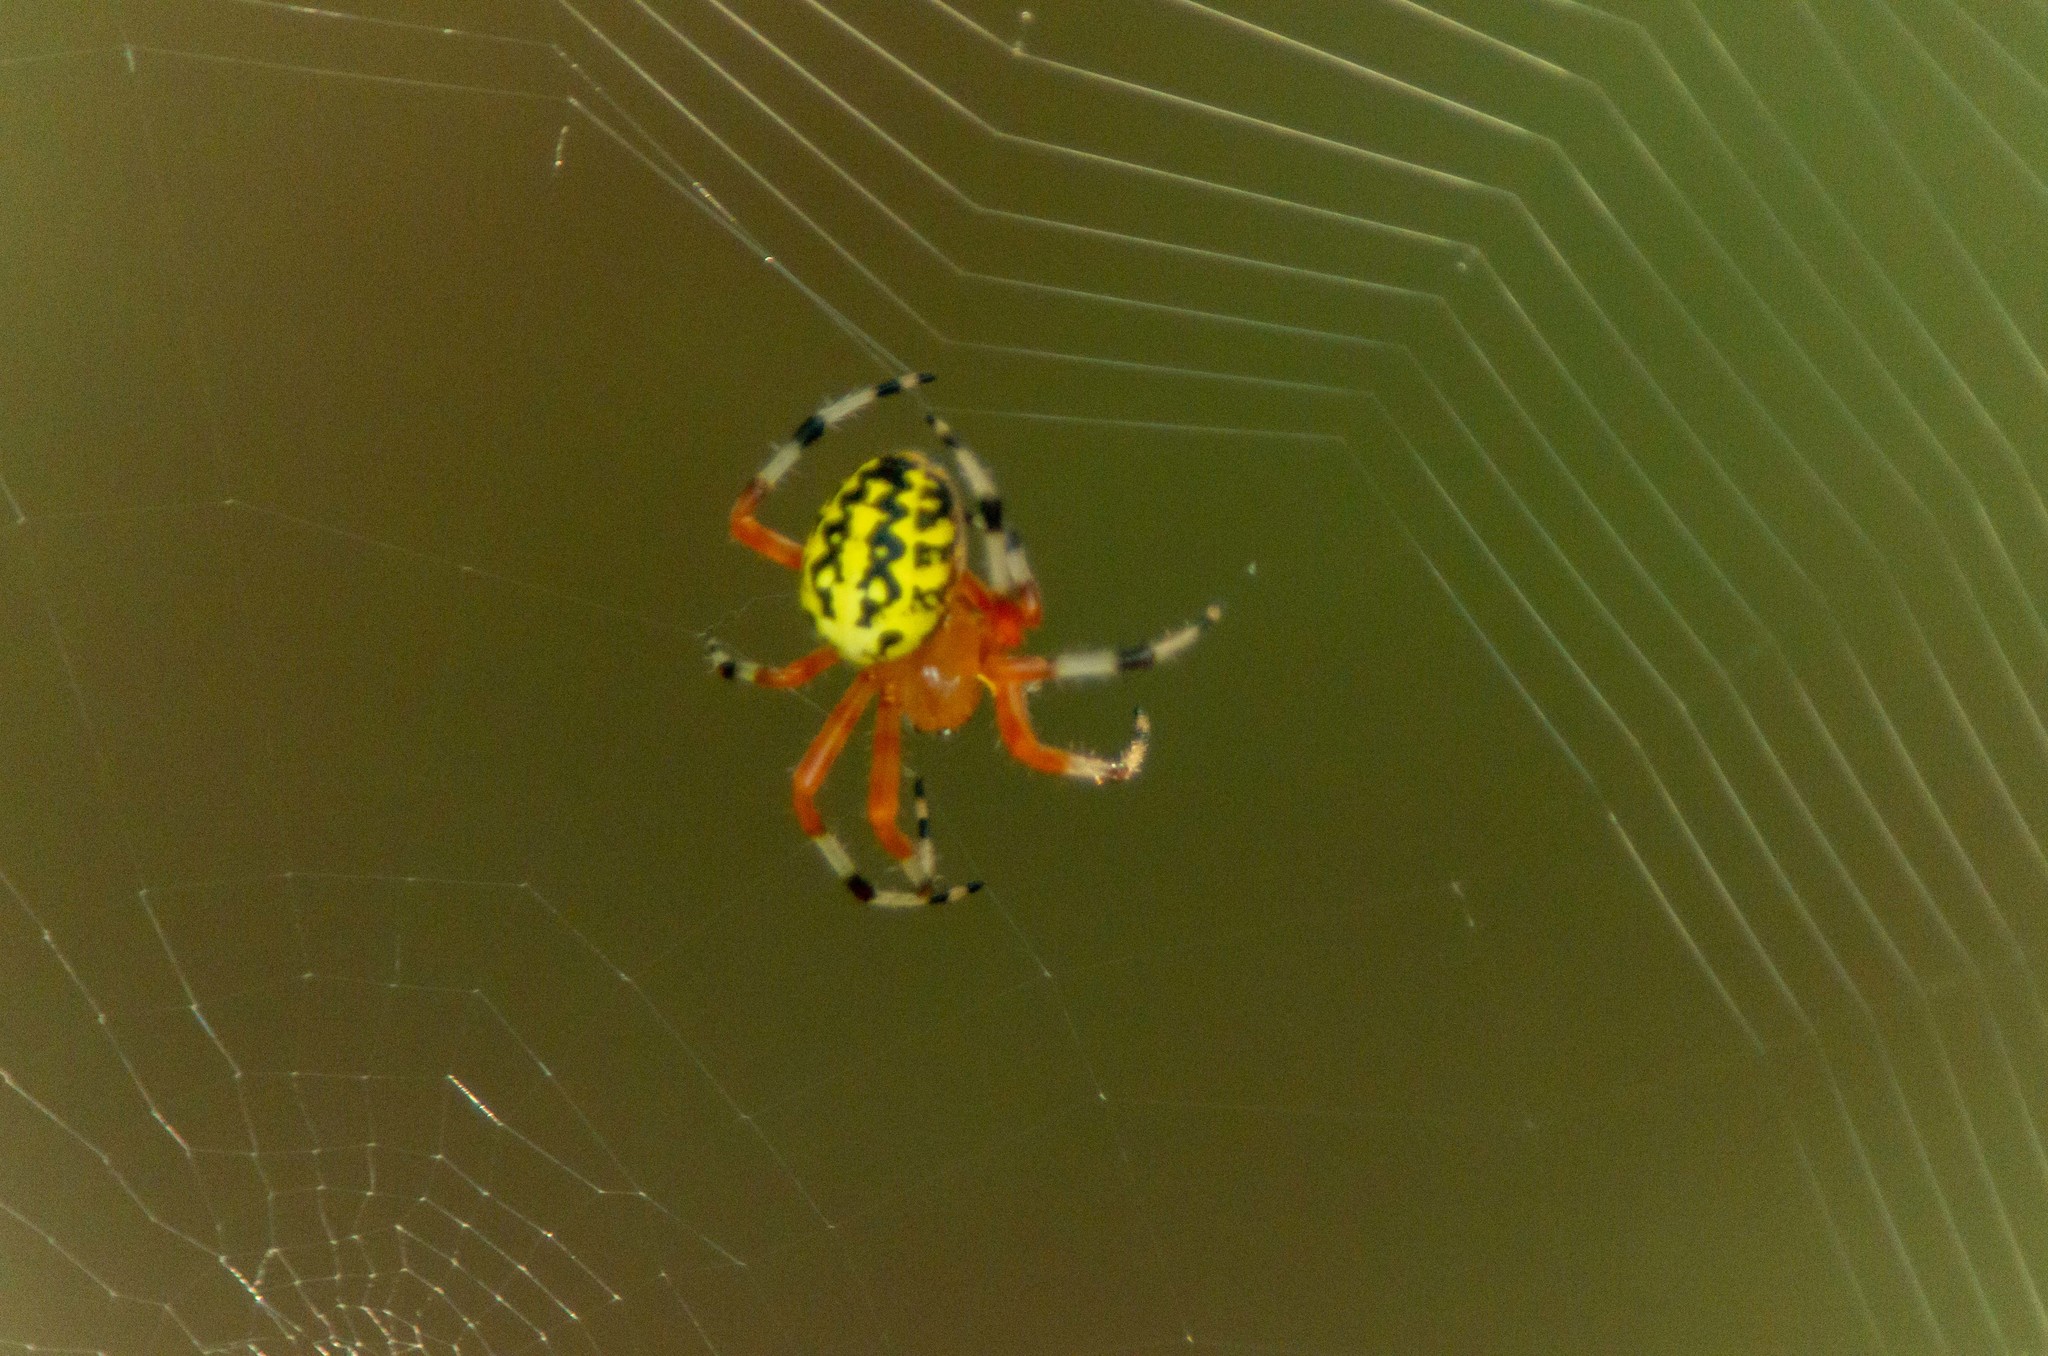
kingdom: Animalia
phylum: Arthropoda
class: Arachnida
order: Araneae
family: Araneidae
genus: Araneus
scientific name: Araneus marmoreus
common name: Marbled orbweaver
